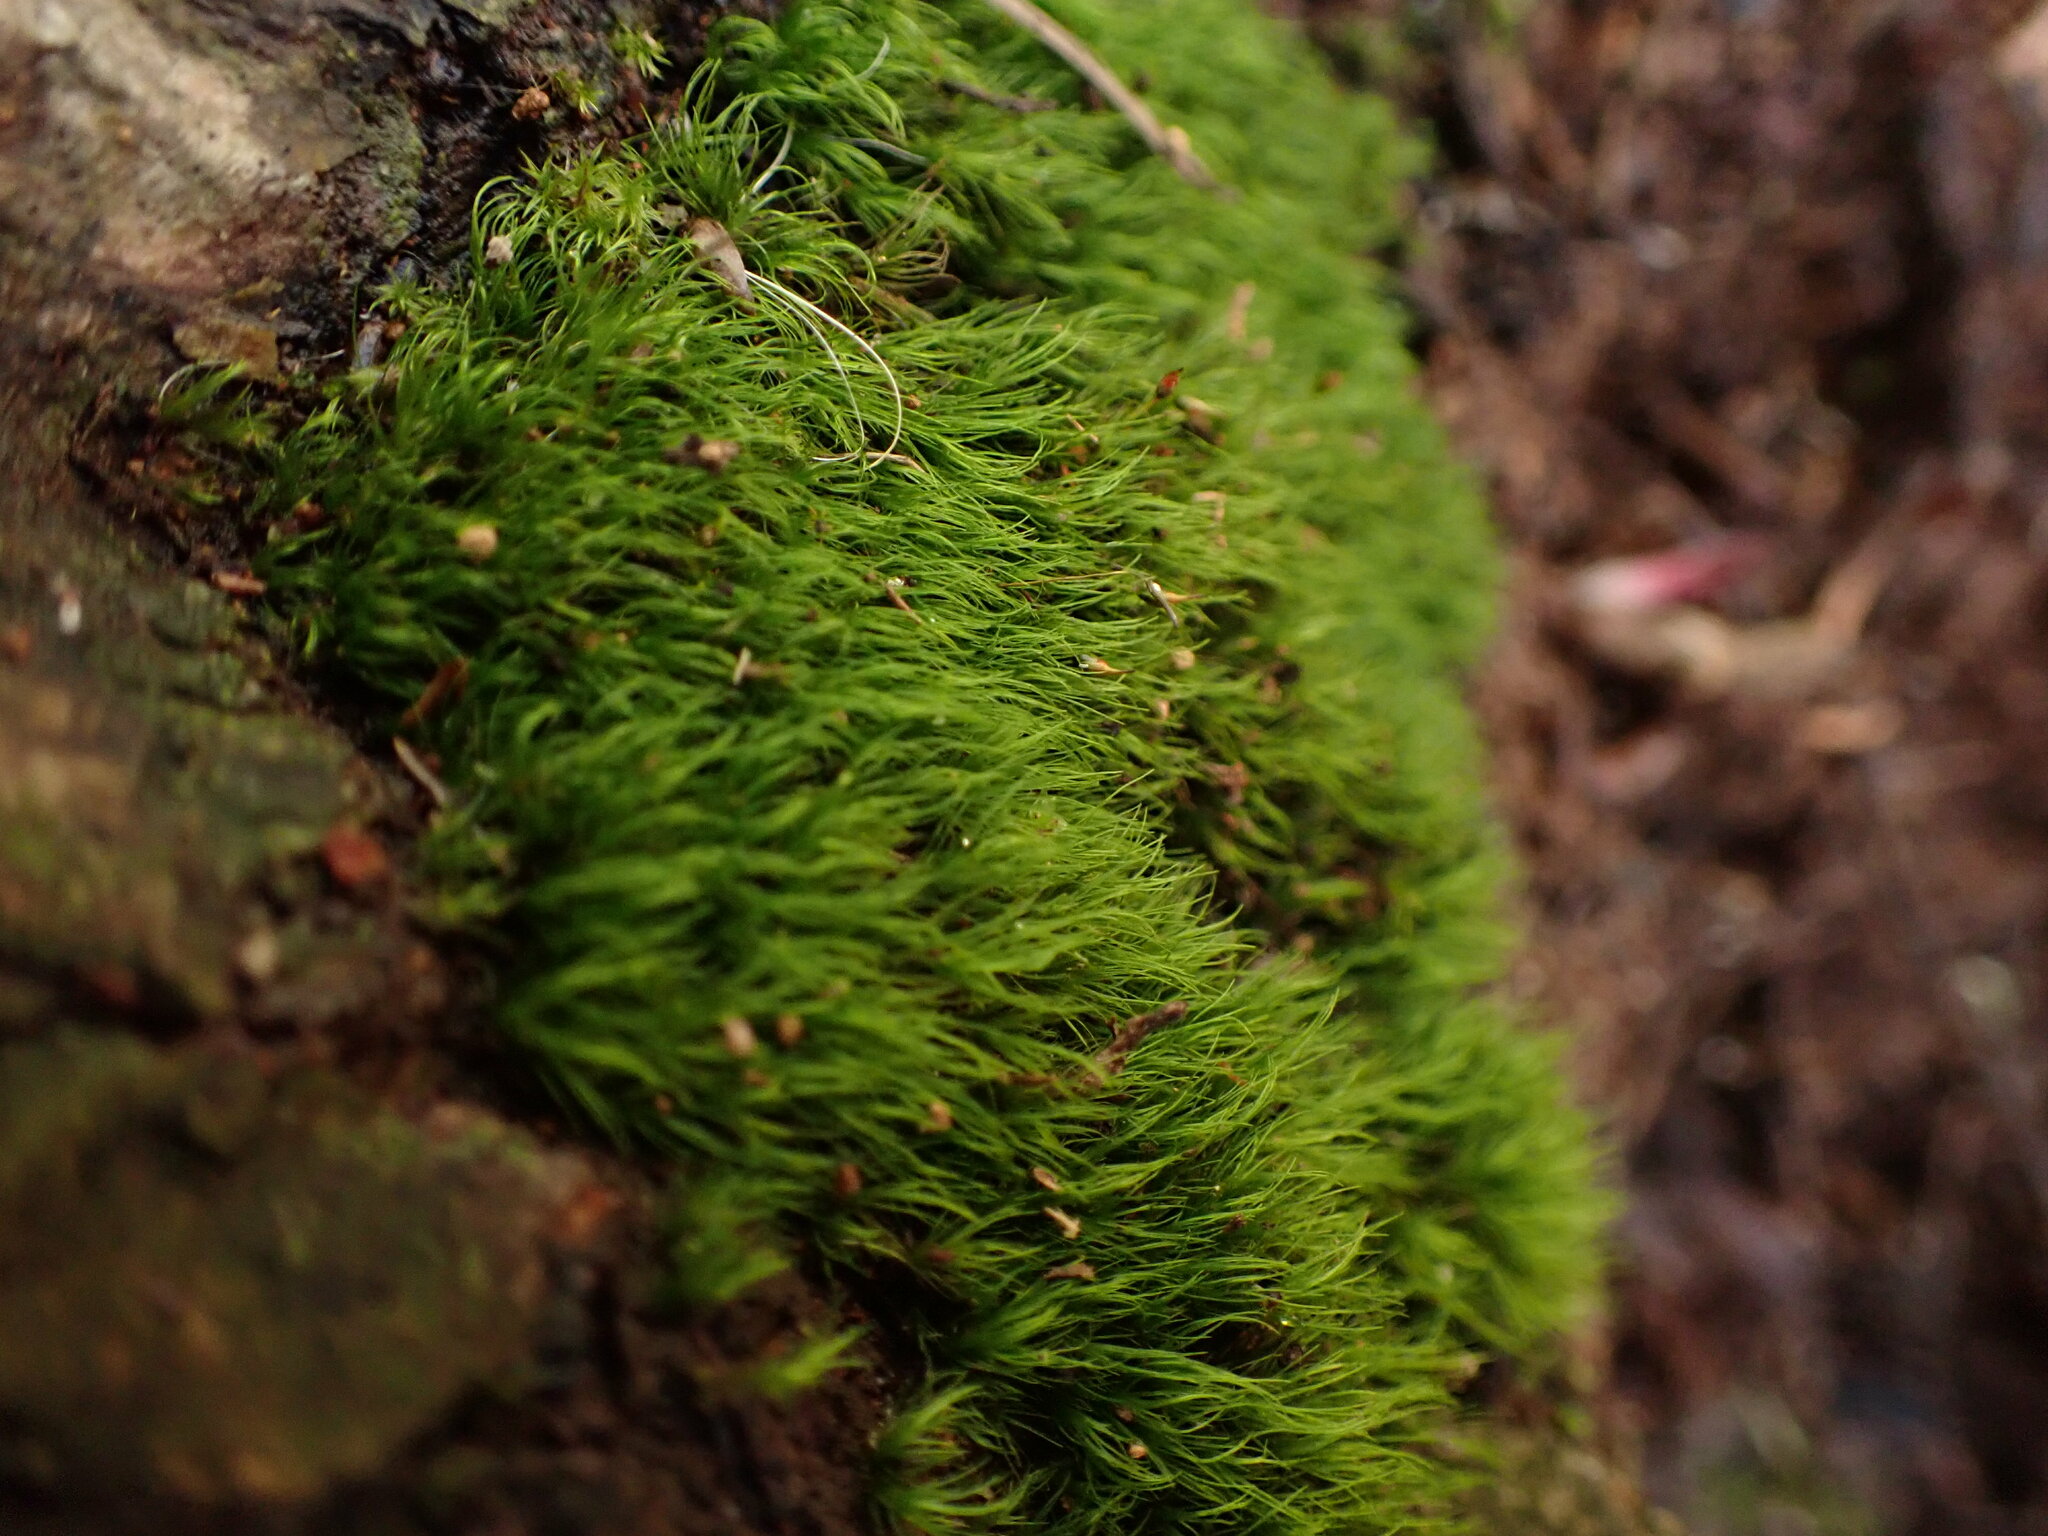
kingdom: Plantae
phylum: Bryophyta
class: Bryopsida
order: Dicranales
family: Dicranellaceae
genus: Dicranella
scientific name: Dicranella heteromalla
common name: Silky forklet moss
